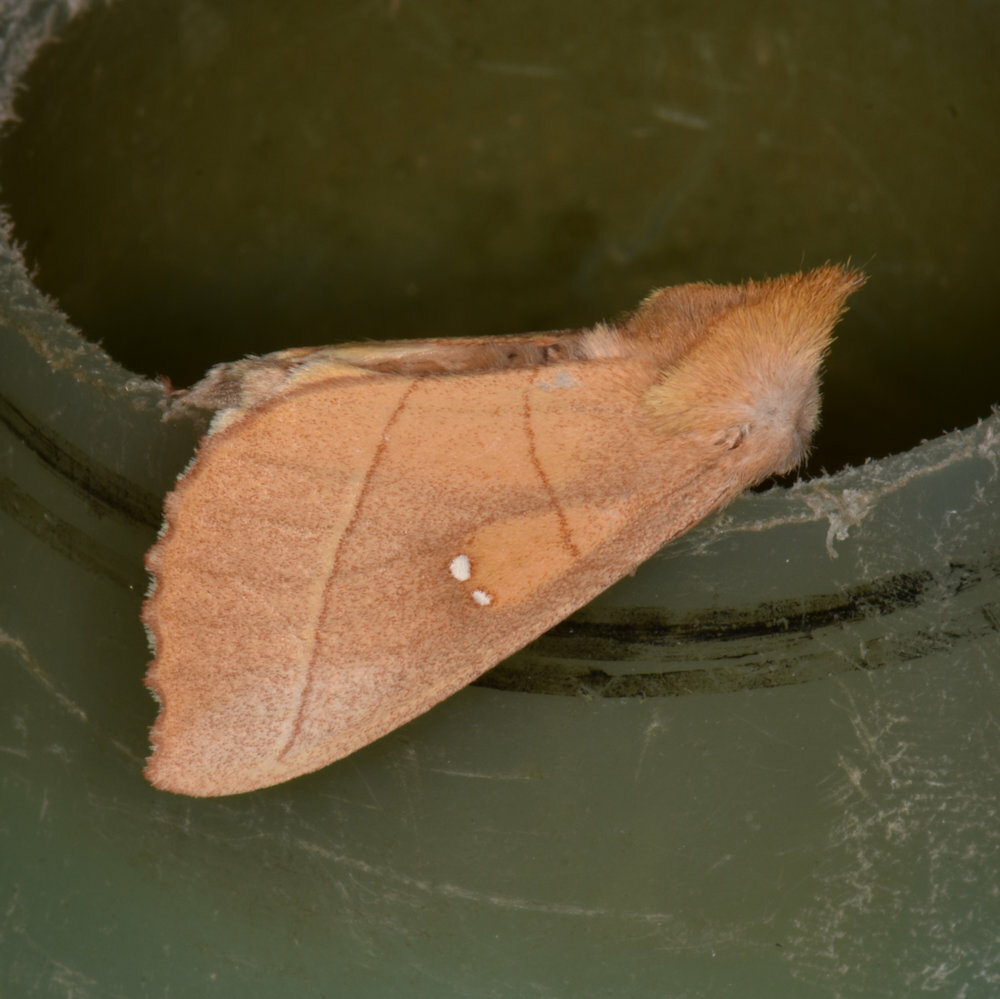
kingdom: Animalia
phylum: Arthropoda
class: Insecta
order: Lepidoptera
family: Notodontidae
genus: Nadata
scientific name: Nadata gibbosa
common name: White-dotted prominent
